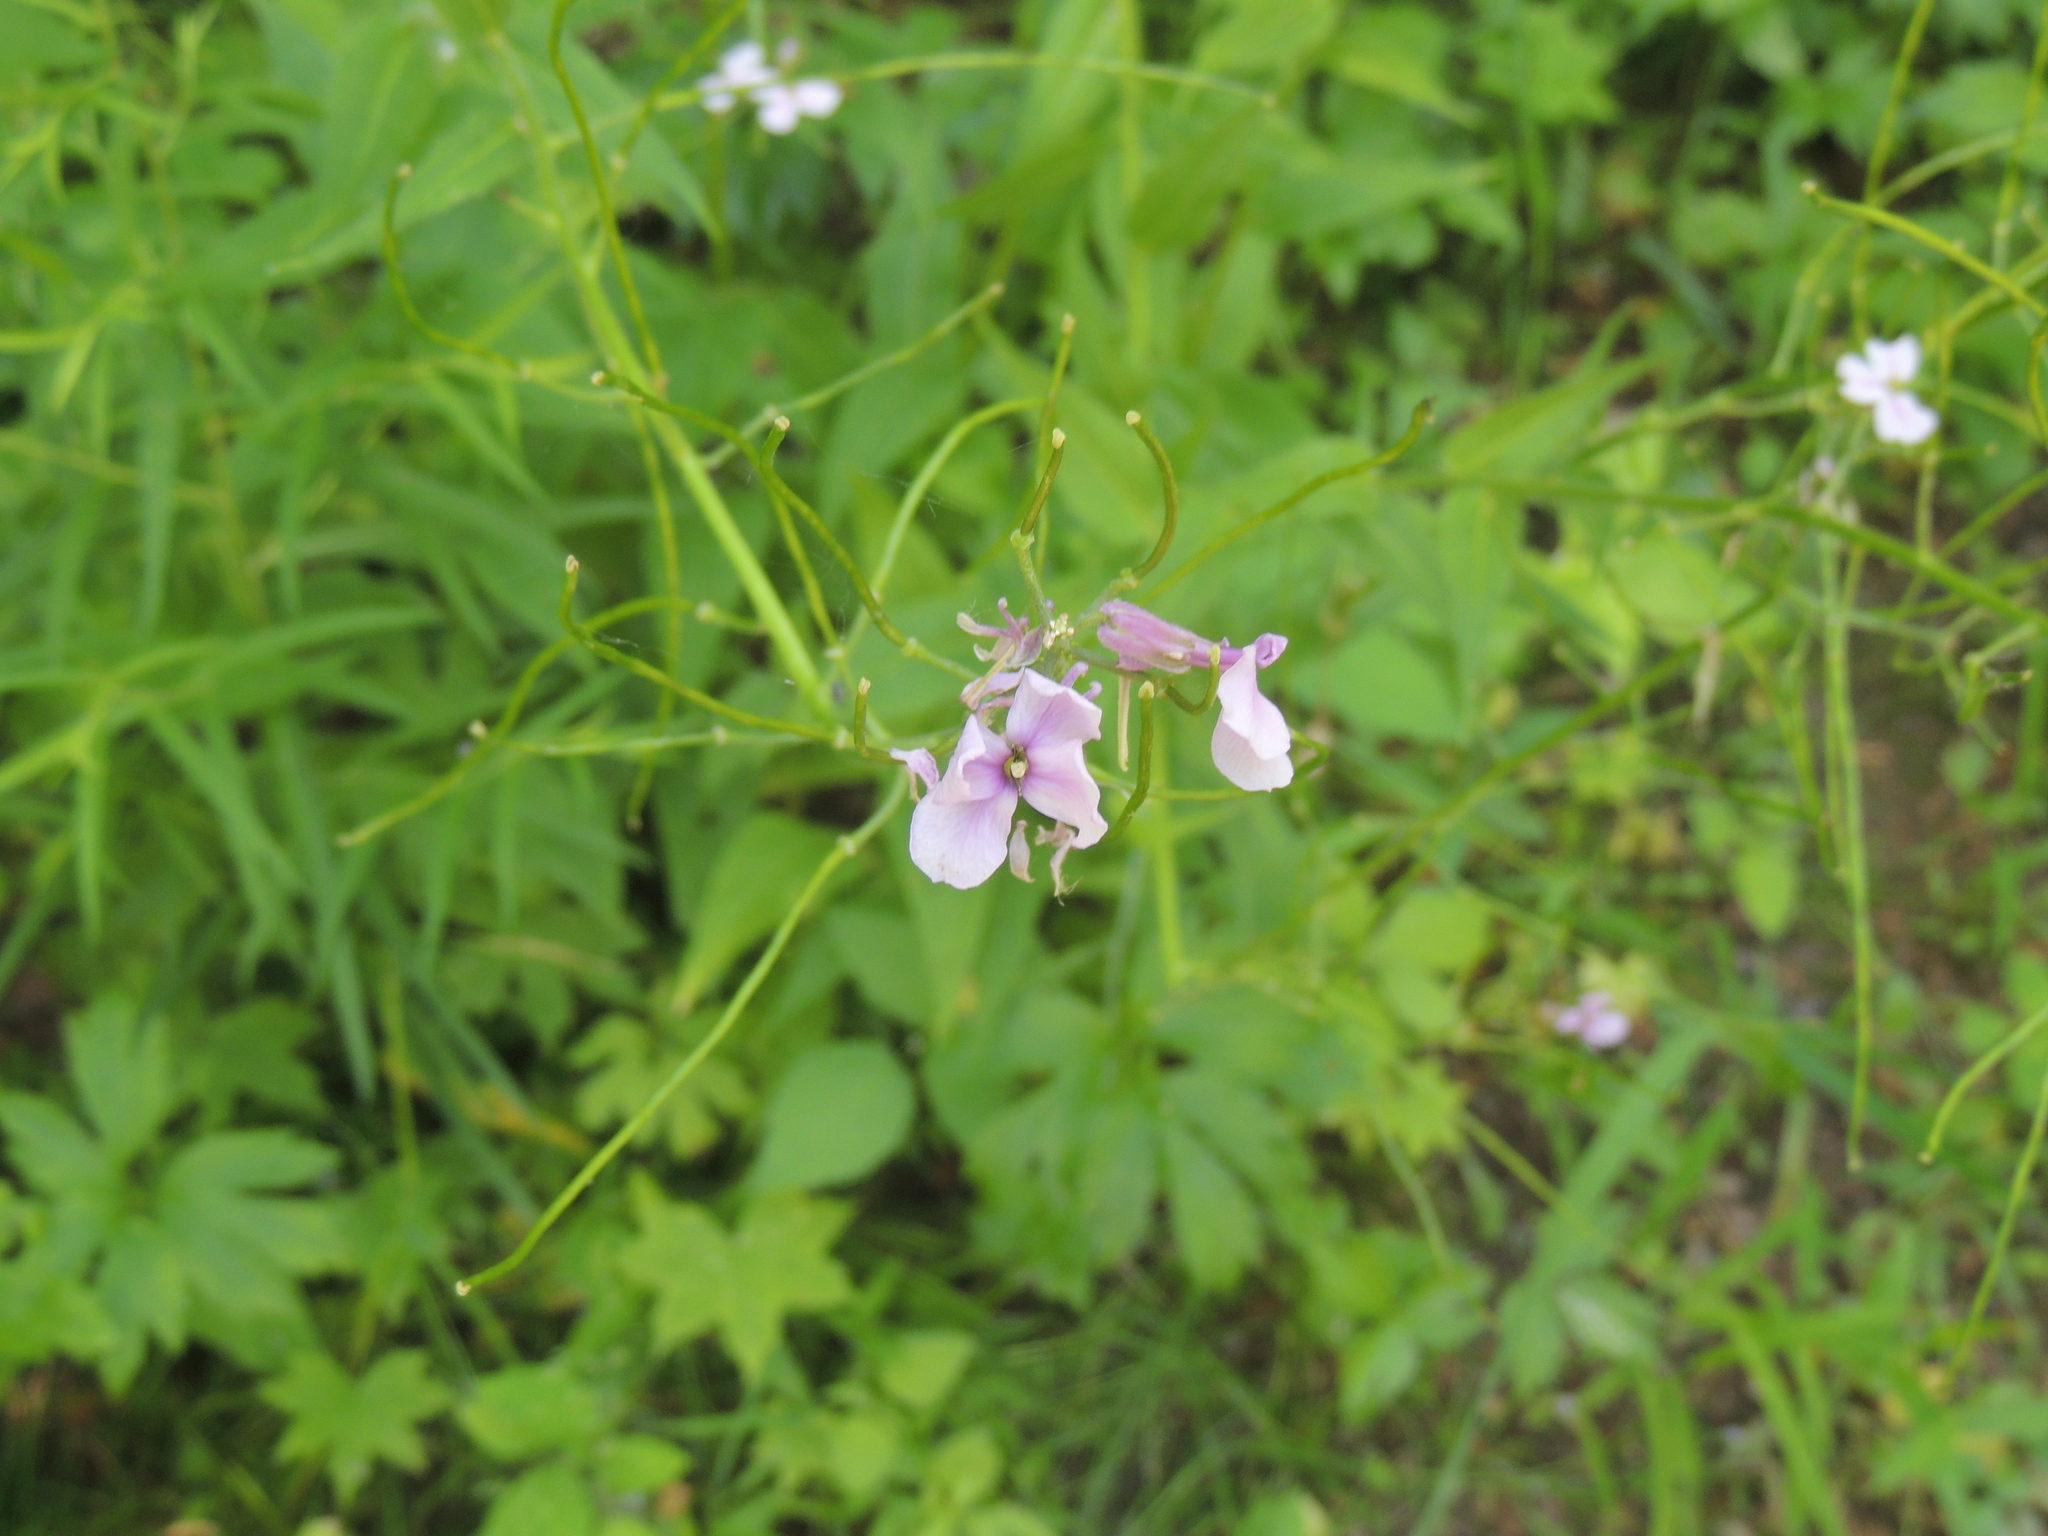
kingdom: Plantae
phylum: Tracheophyta
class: Magnoliopsida
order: Brassicales
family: Brassicaceae
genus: Hesperis
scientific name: Hesperis matronalis
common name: Dame's-violet
